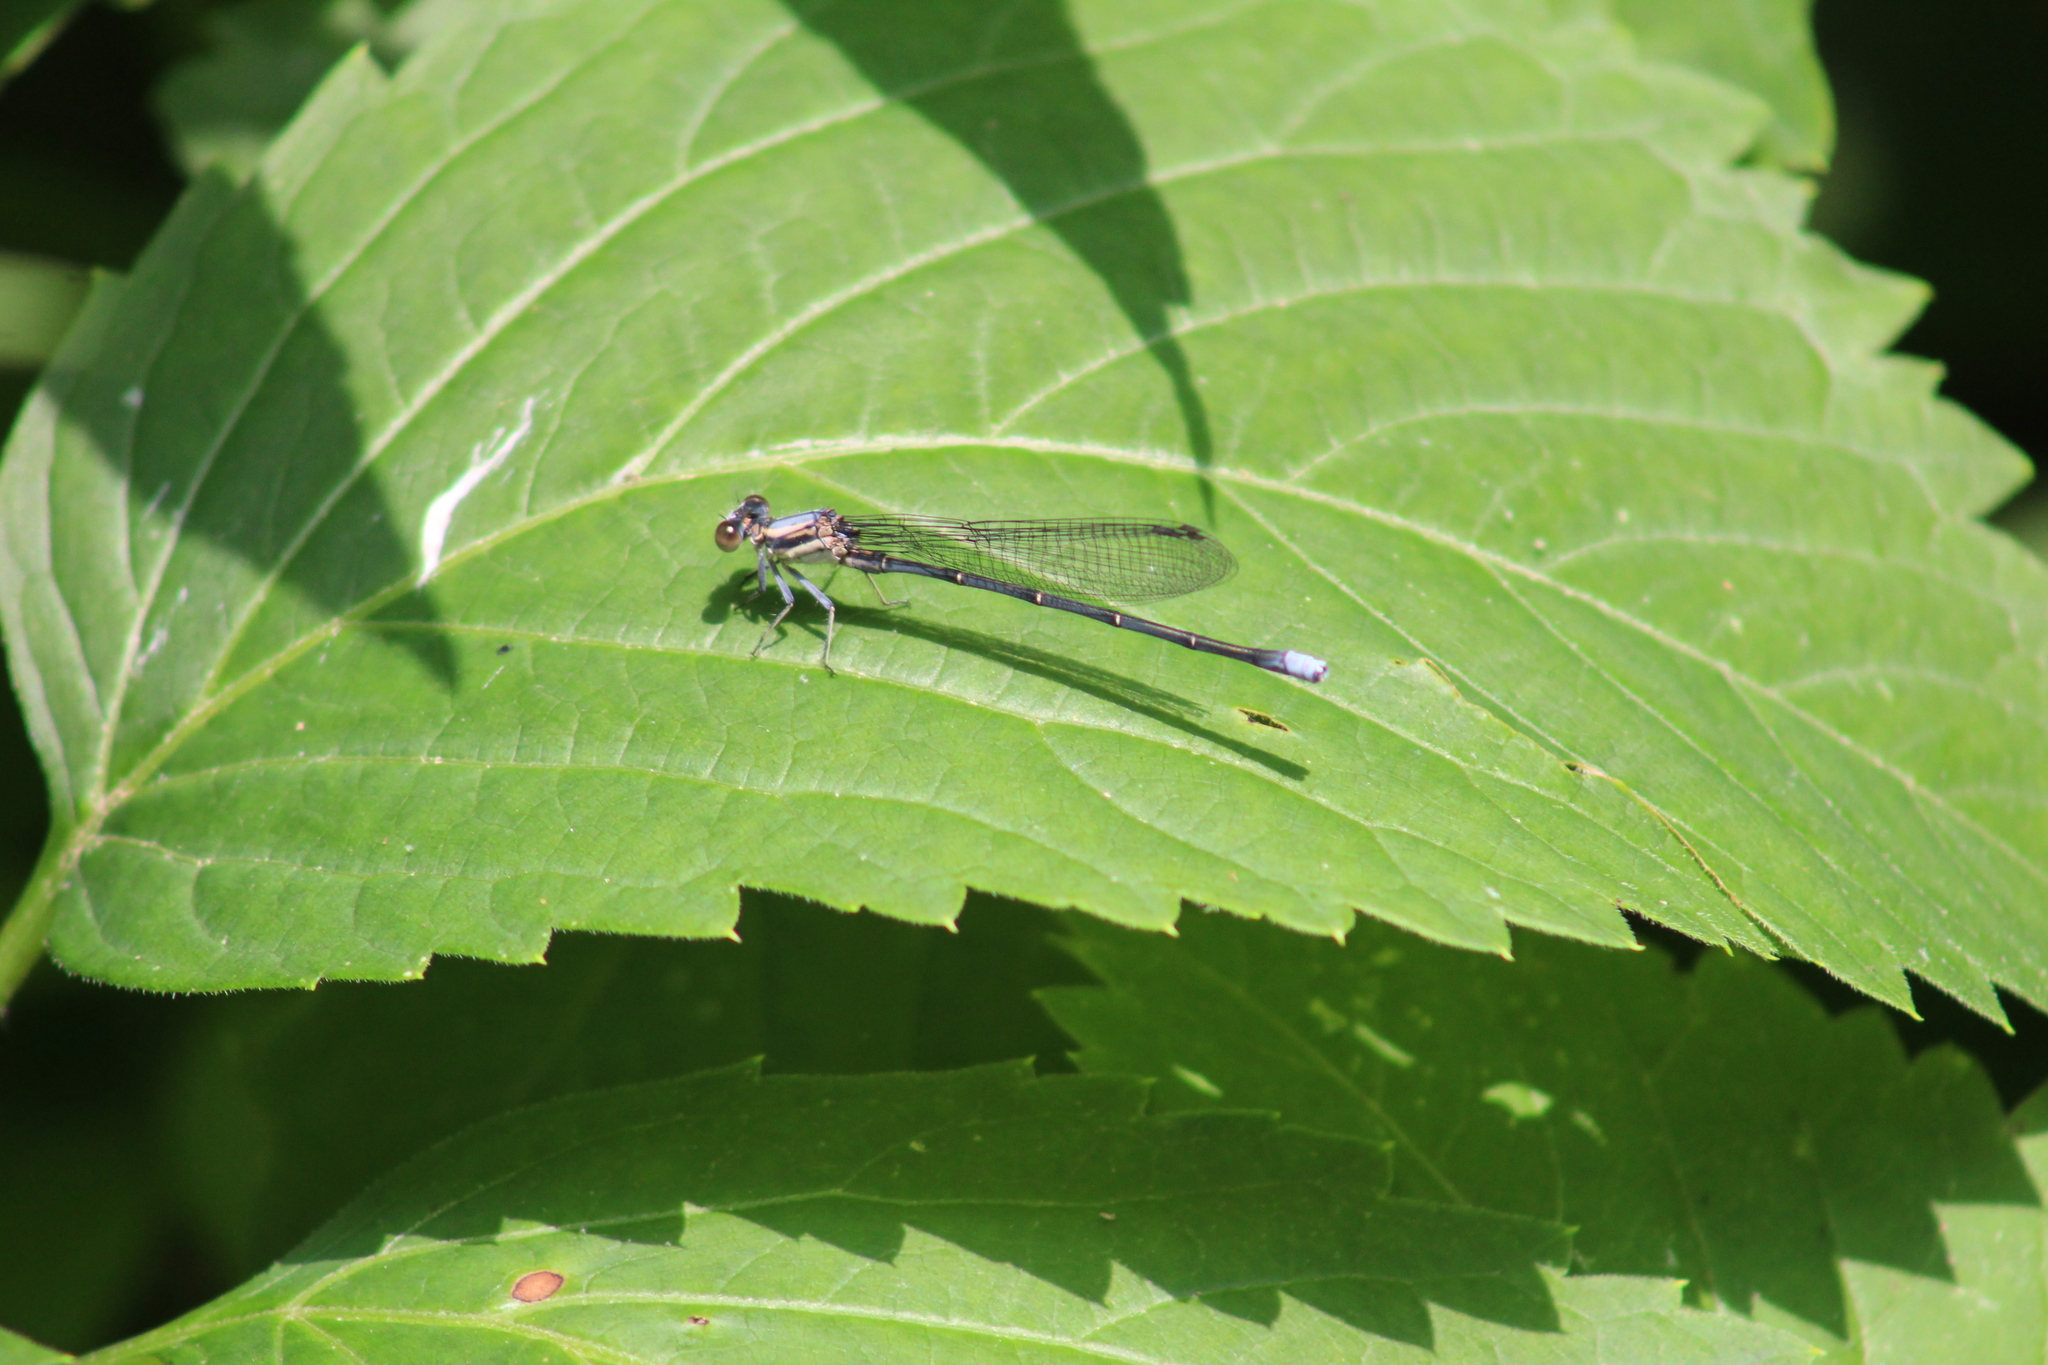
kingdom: Animalia
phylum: Arthropoda
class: Insecta
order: Odonata
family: Coenagrionidae
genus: Argia
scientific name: Argia moesta
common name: Powdered dancer
